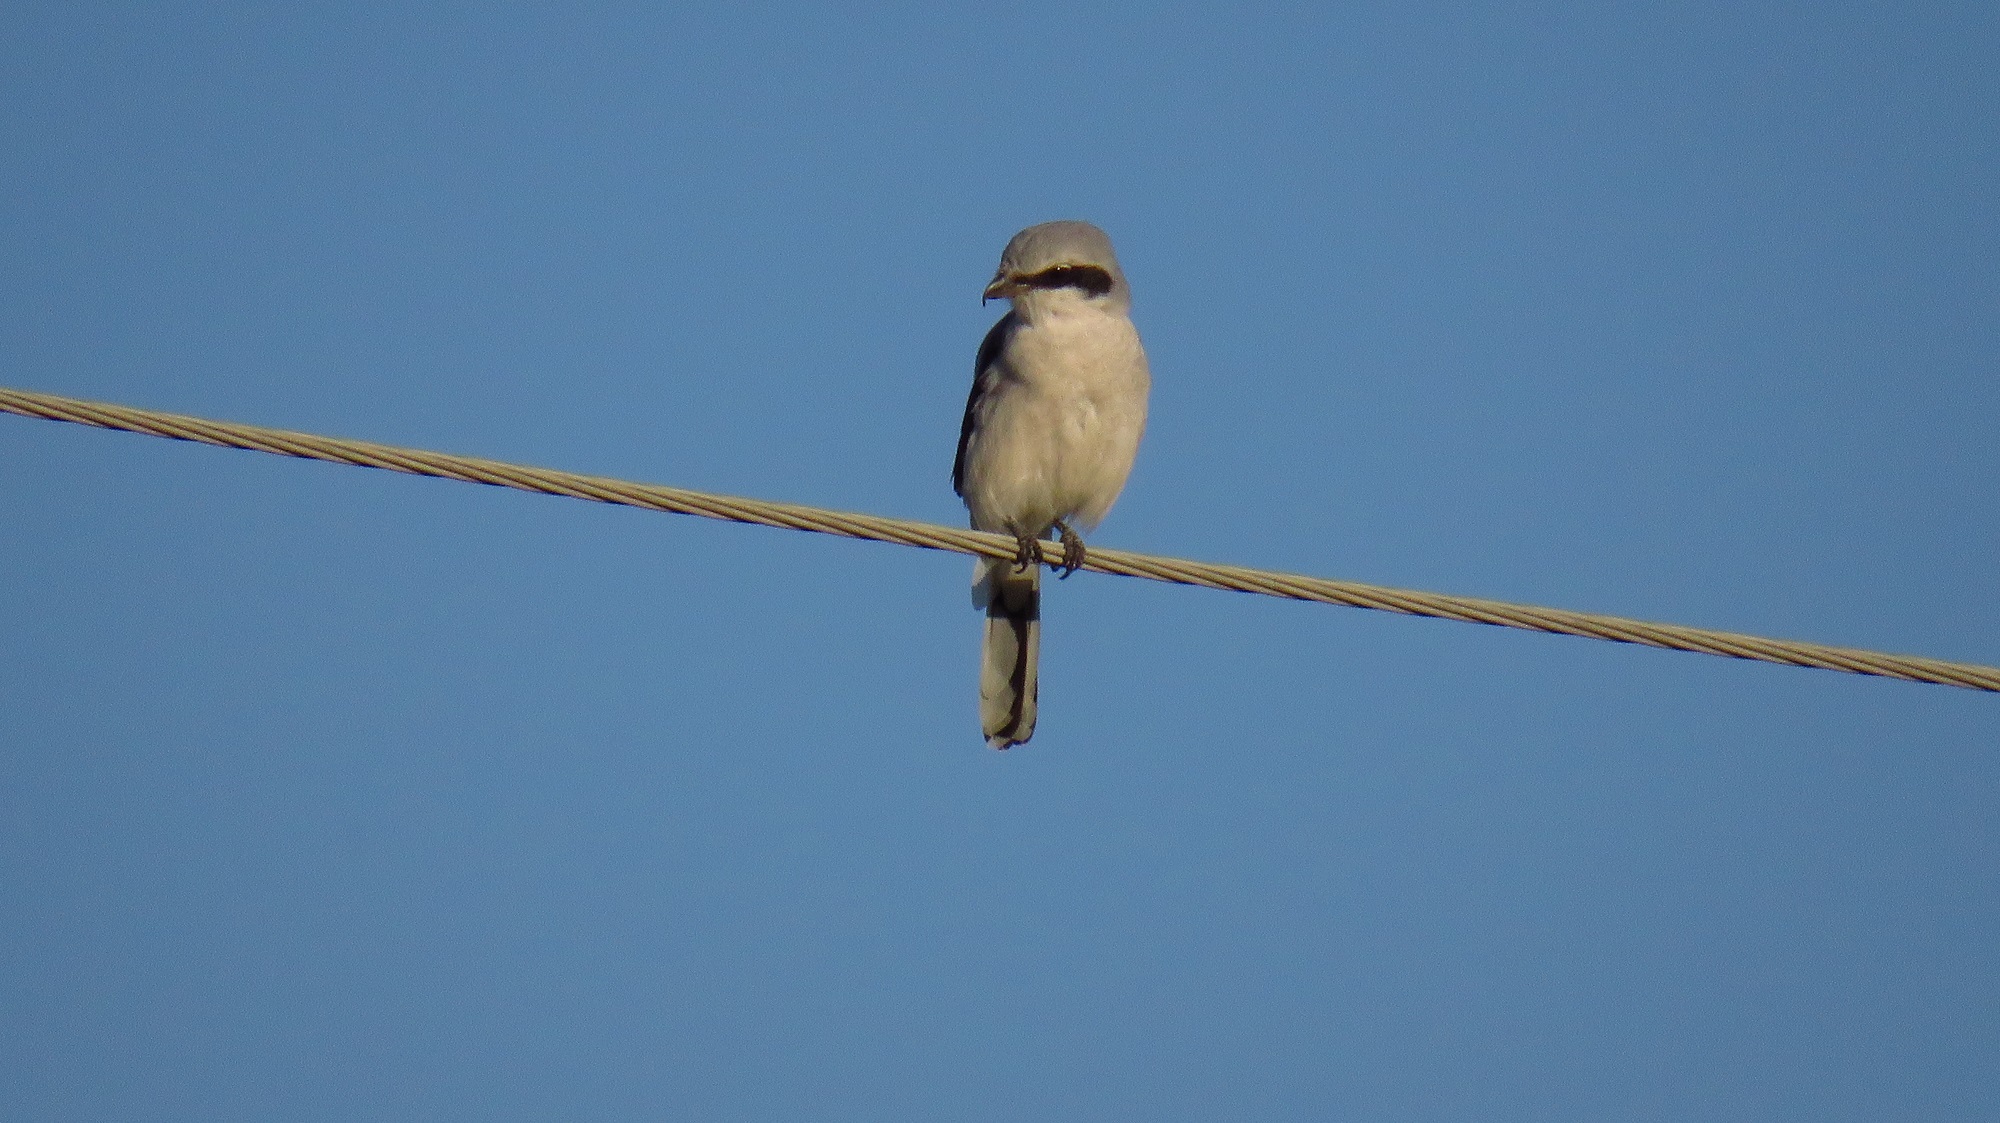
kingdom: Animalia
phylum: Chordata
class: Aves
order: Passeriformes
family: Laniidae
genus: Lanius
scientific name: Lanius excubitor
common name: Great grey shrike
